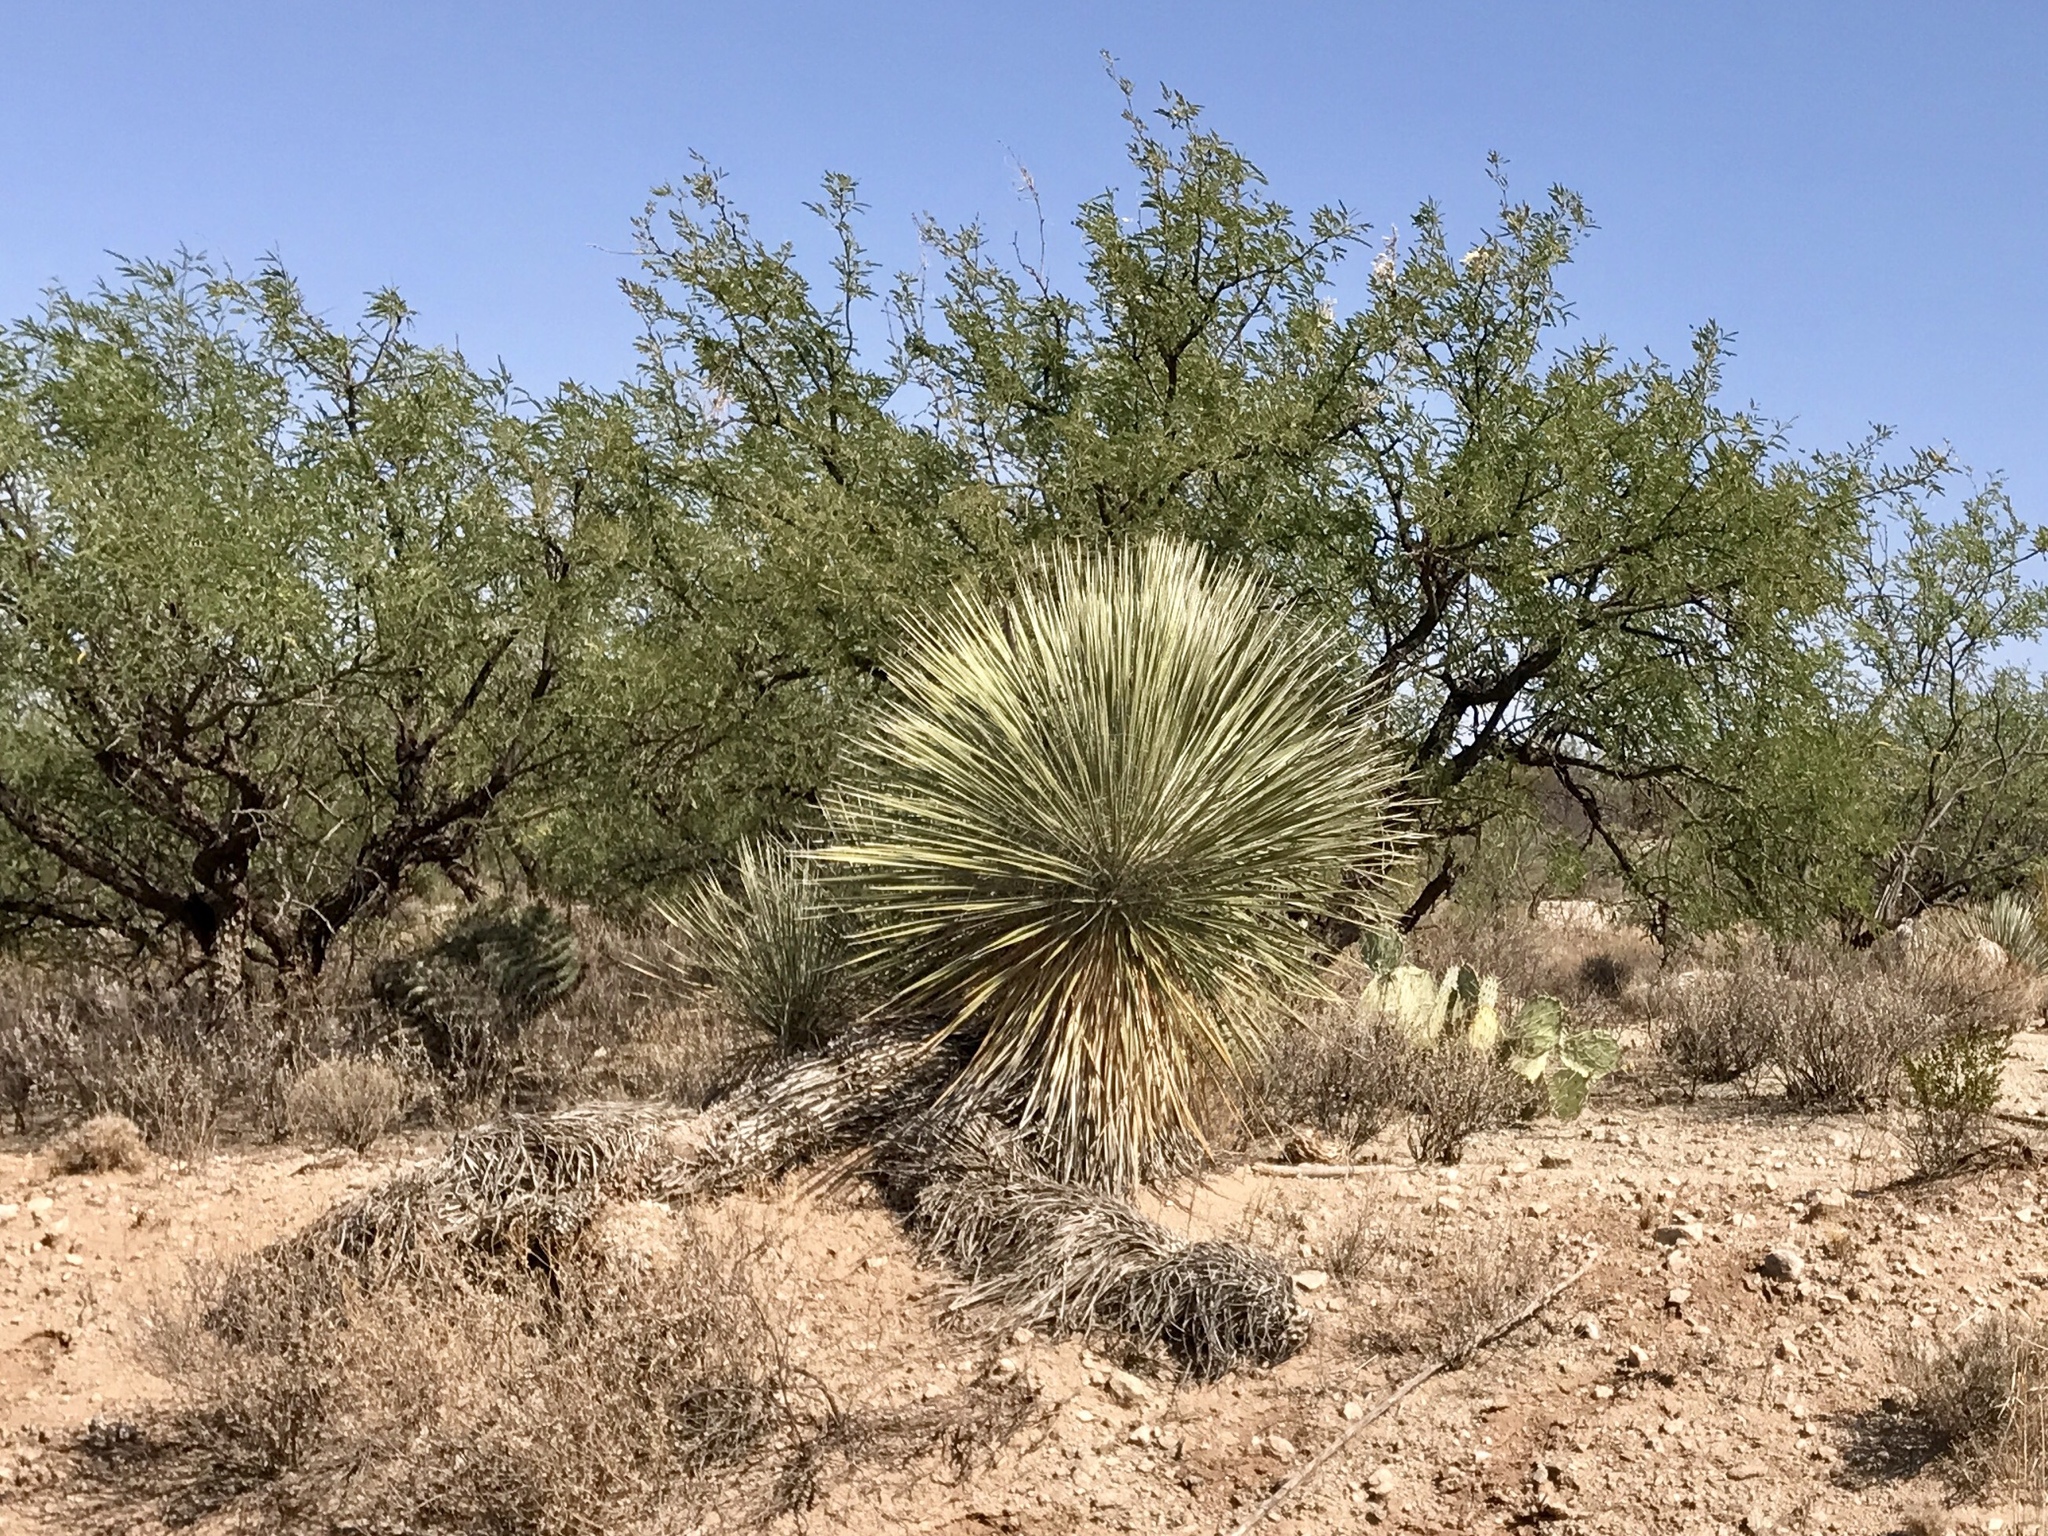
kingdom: Plantae
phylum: Tracheophyta
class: Liliopsida
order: Asparagales
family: Asparagaceae
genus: Yucca
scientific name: Yucca elata
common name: Palmella
